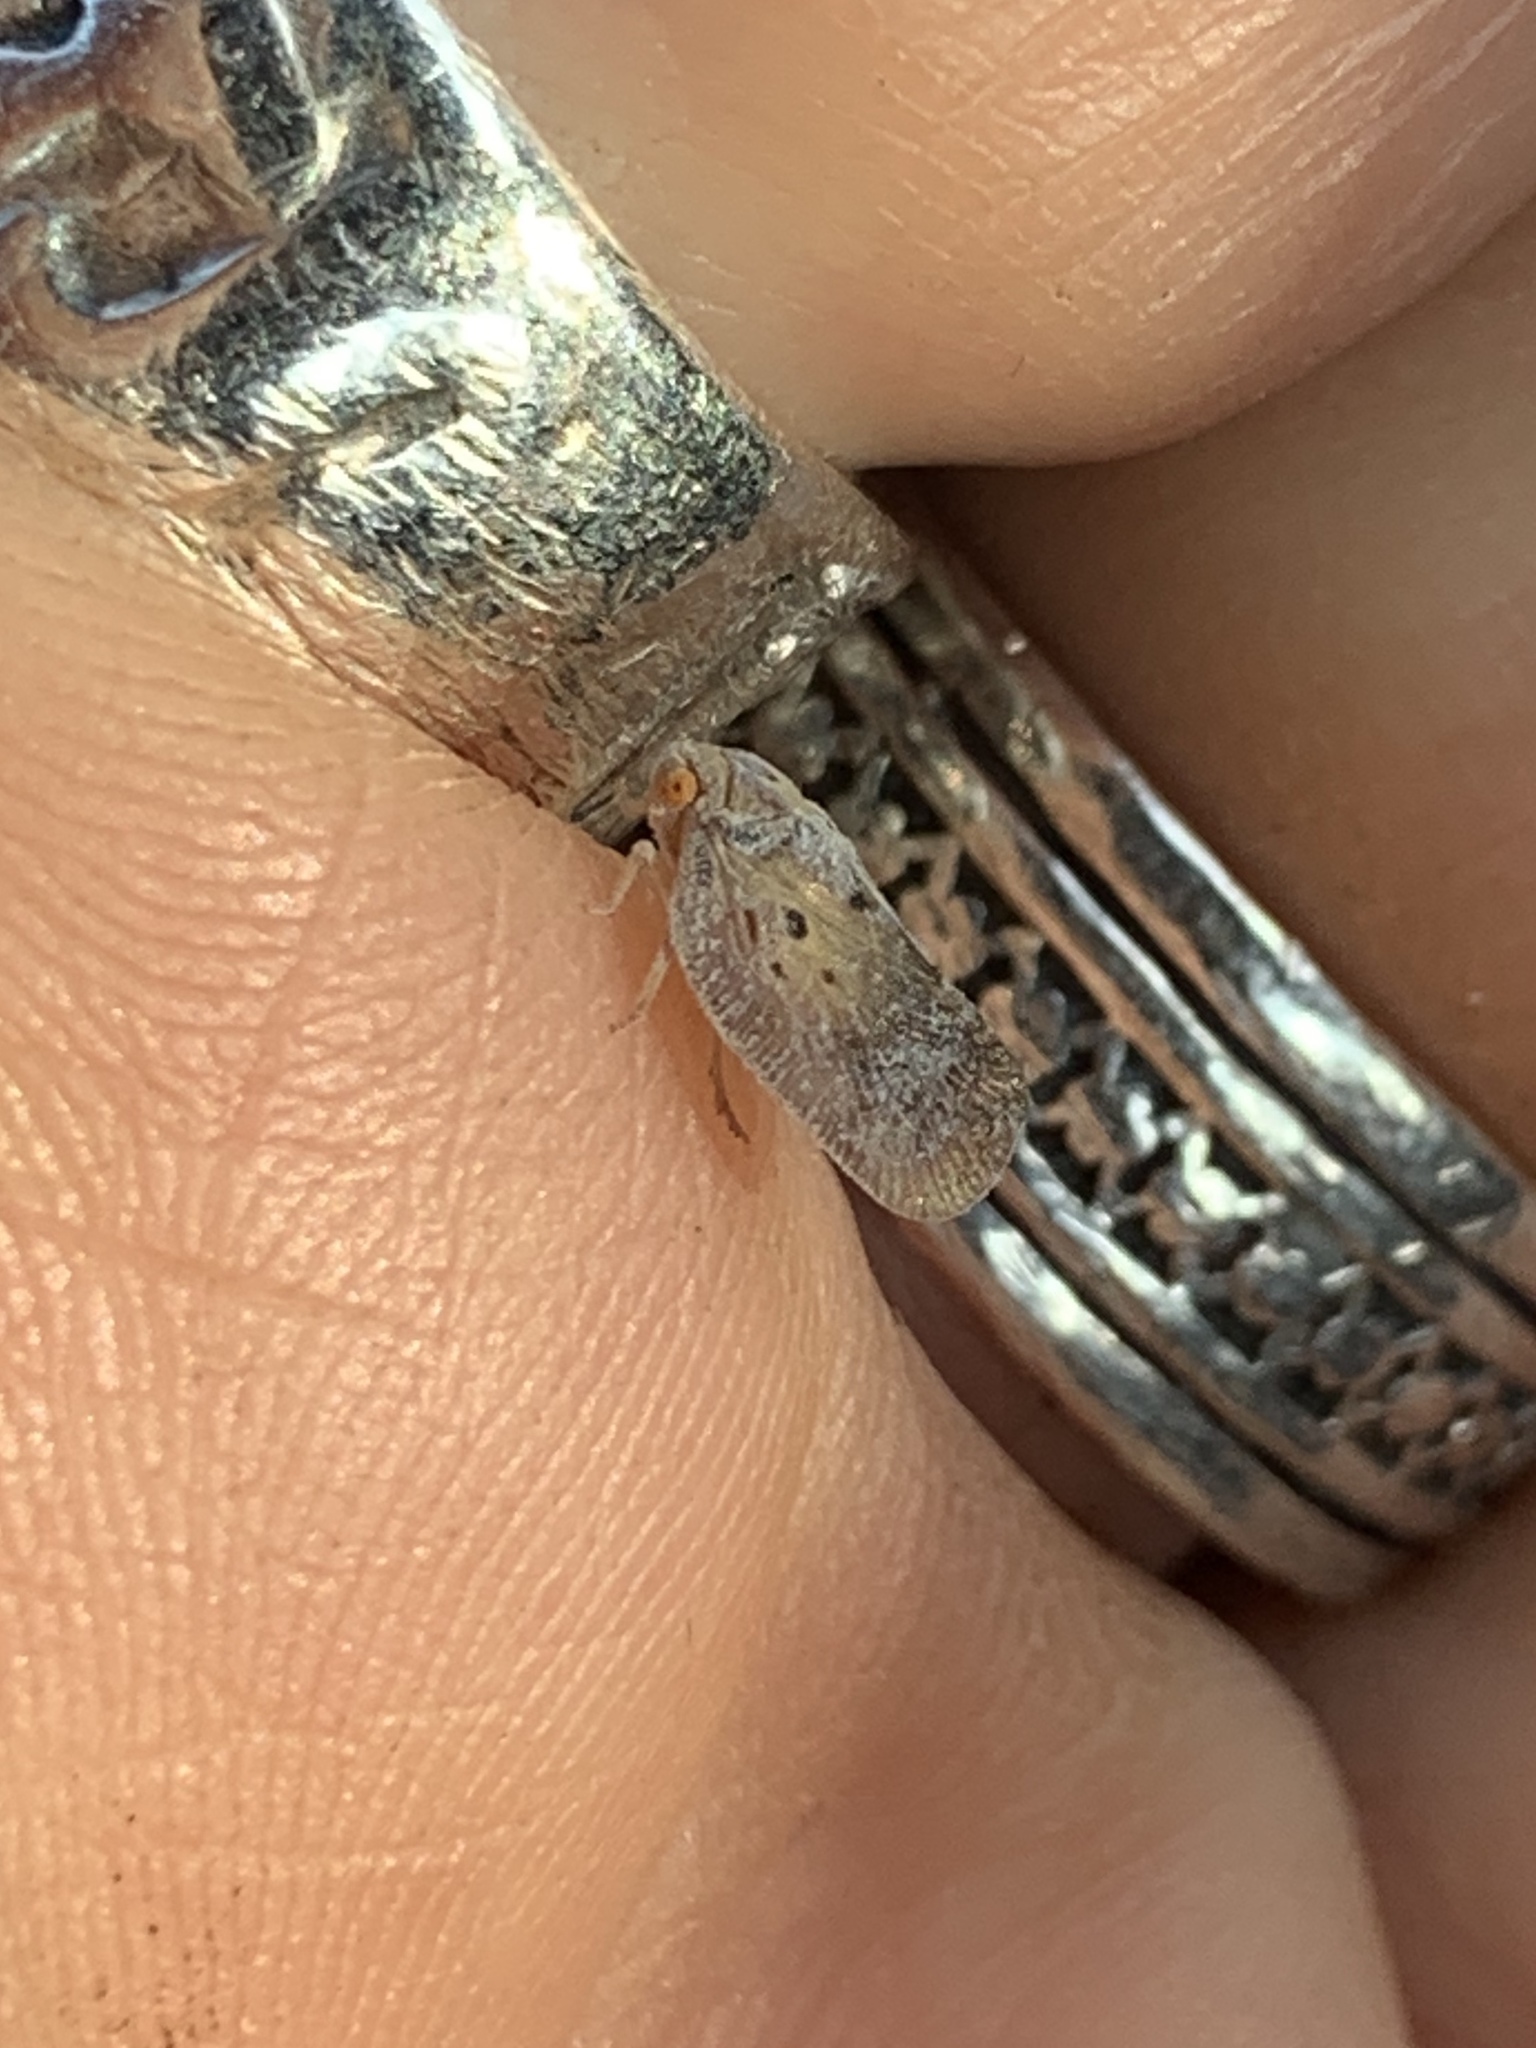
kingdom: Animalia
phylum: Arthropoda
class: Insecta
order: Hemiptera
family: Flatidae
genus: Melormenis
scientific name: Melormenis basalis
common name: Puerto rican planthopper
